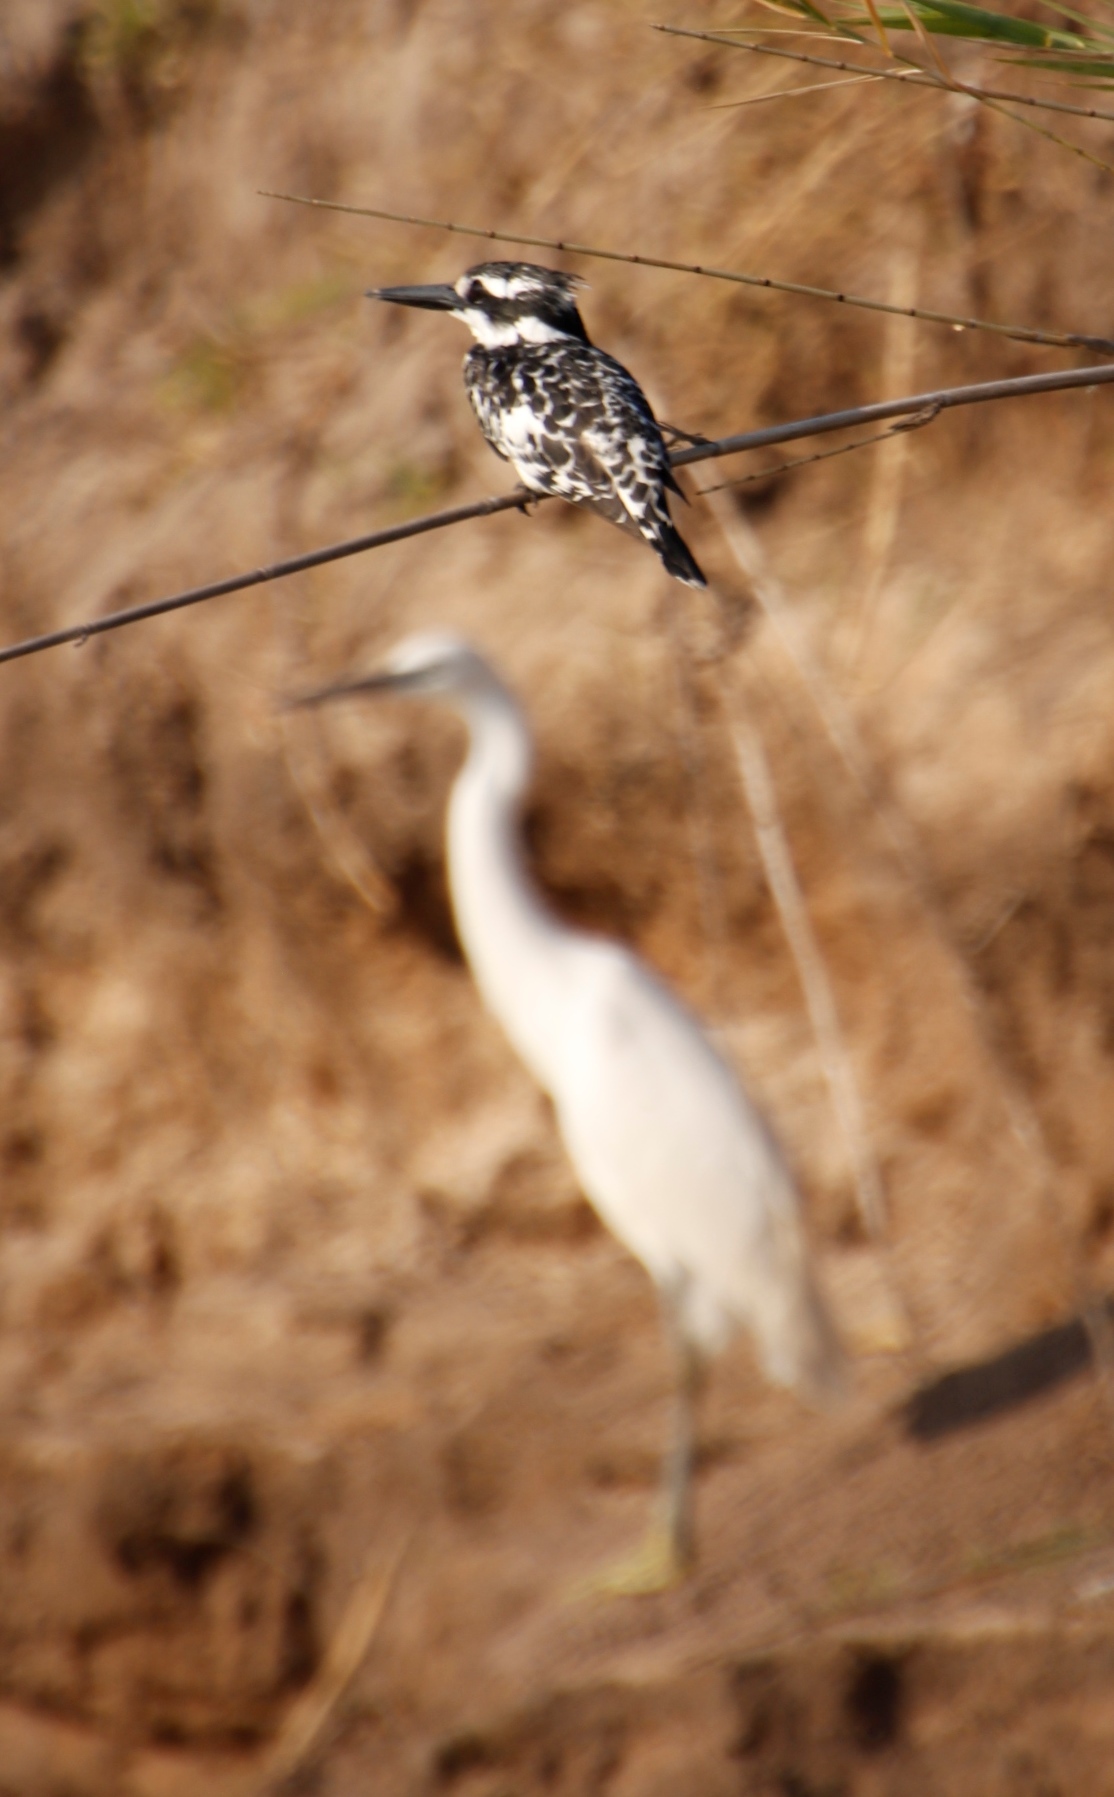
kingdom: Animalia
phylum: Chordata
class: Aves
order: Coraciiformes
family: Alcedinidae
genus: Ceryle
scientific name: Ceryle rudis
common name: Pied kingfisher
